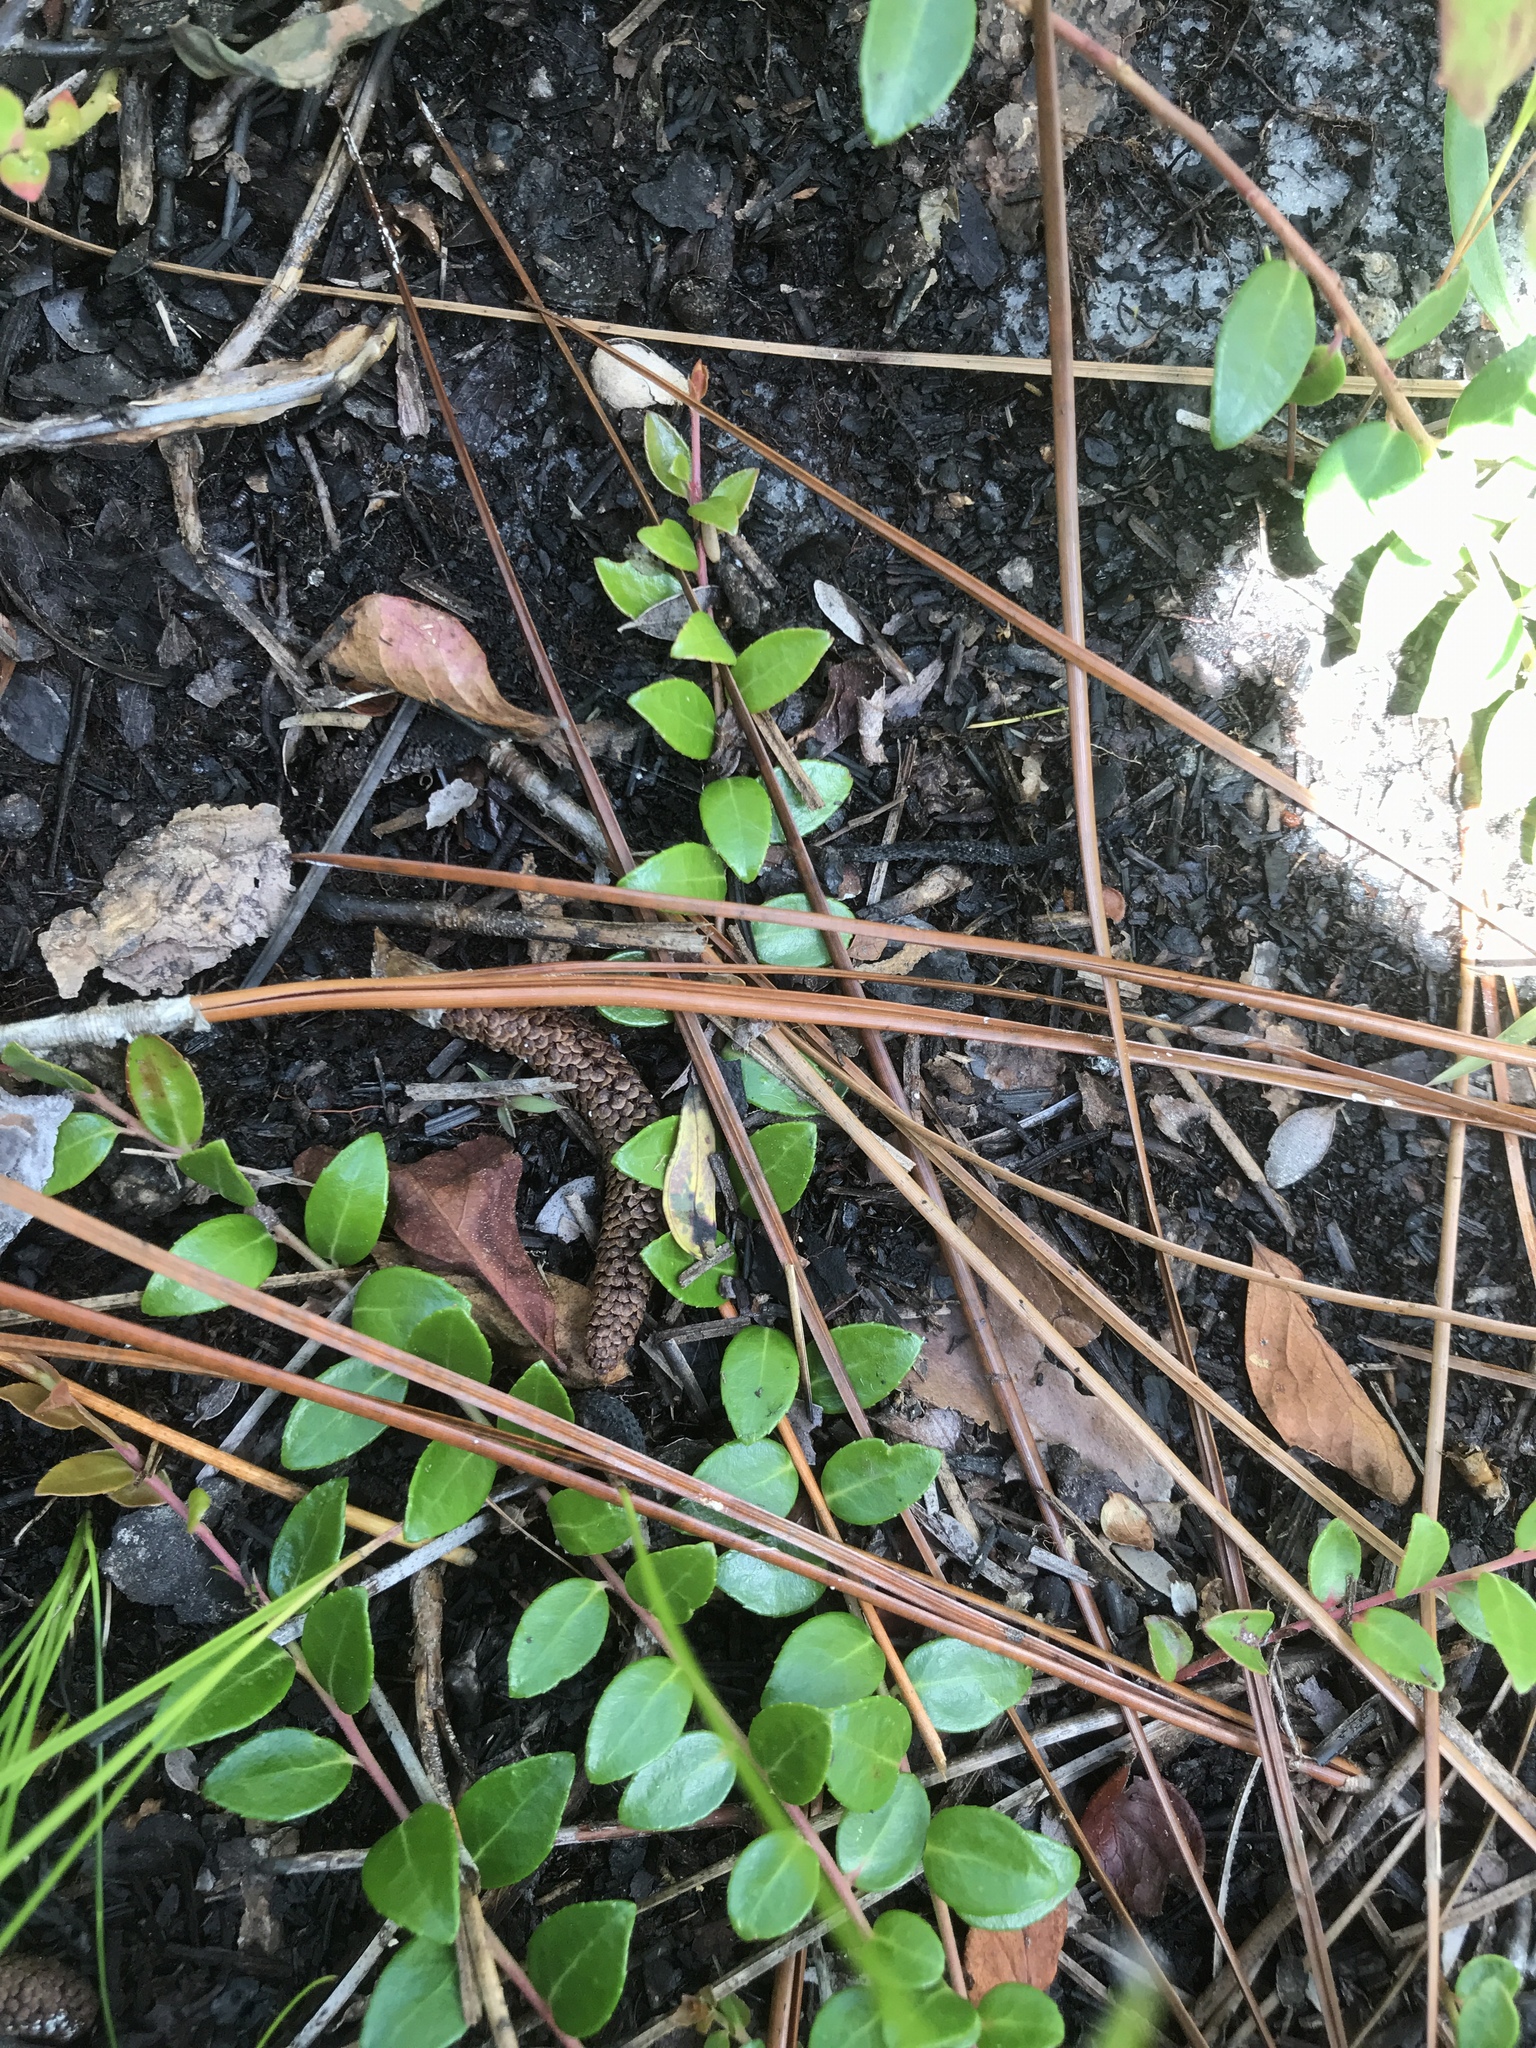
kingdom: Plantae
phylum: Tracheophyta
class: Magnoliopsida
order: Ericales
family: Ericaceae
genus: Vaccinium
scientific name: Vaccinium crassifolium
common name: Creeping blueberry
